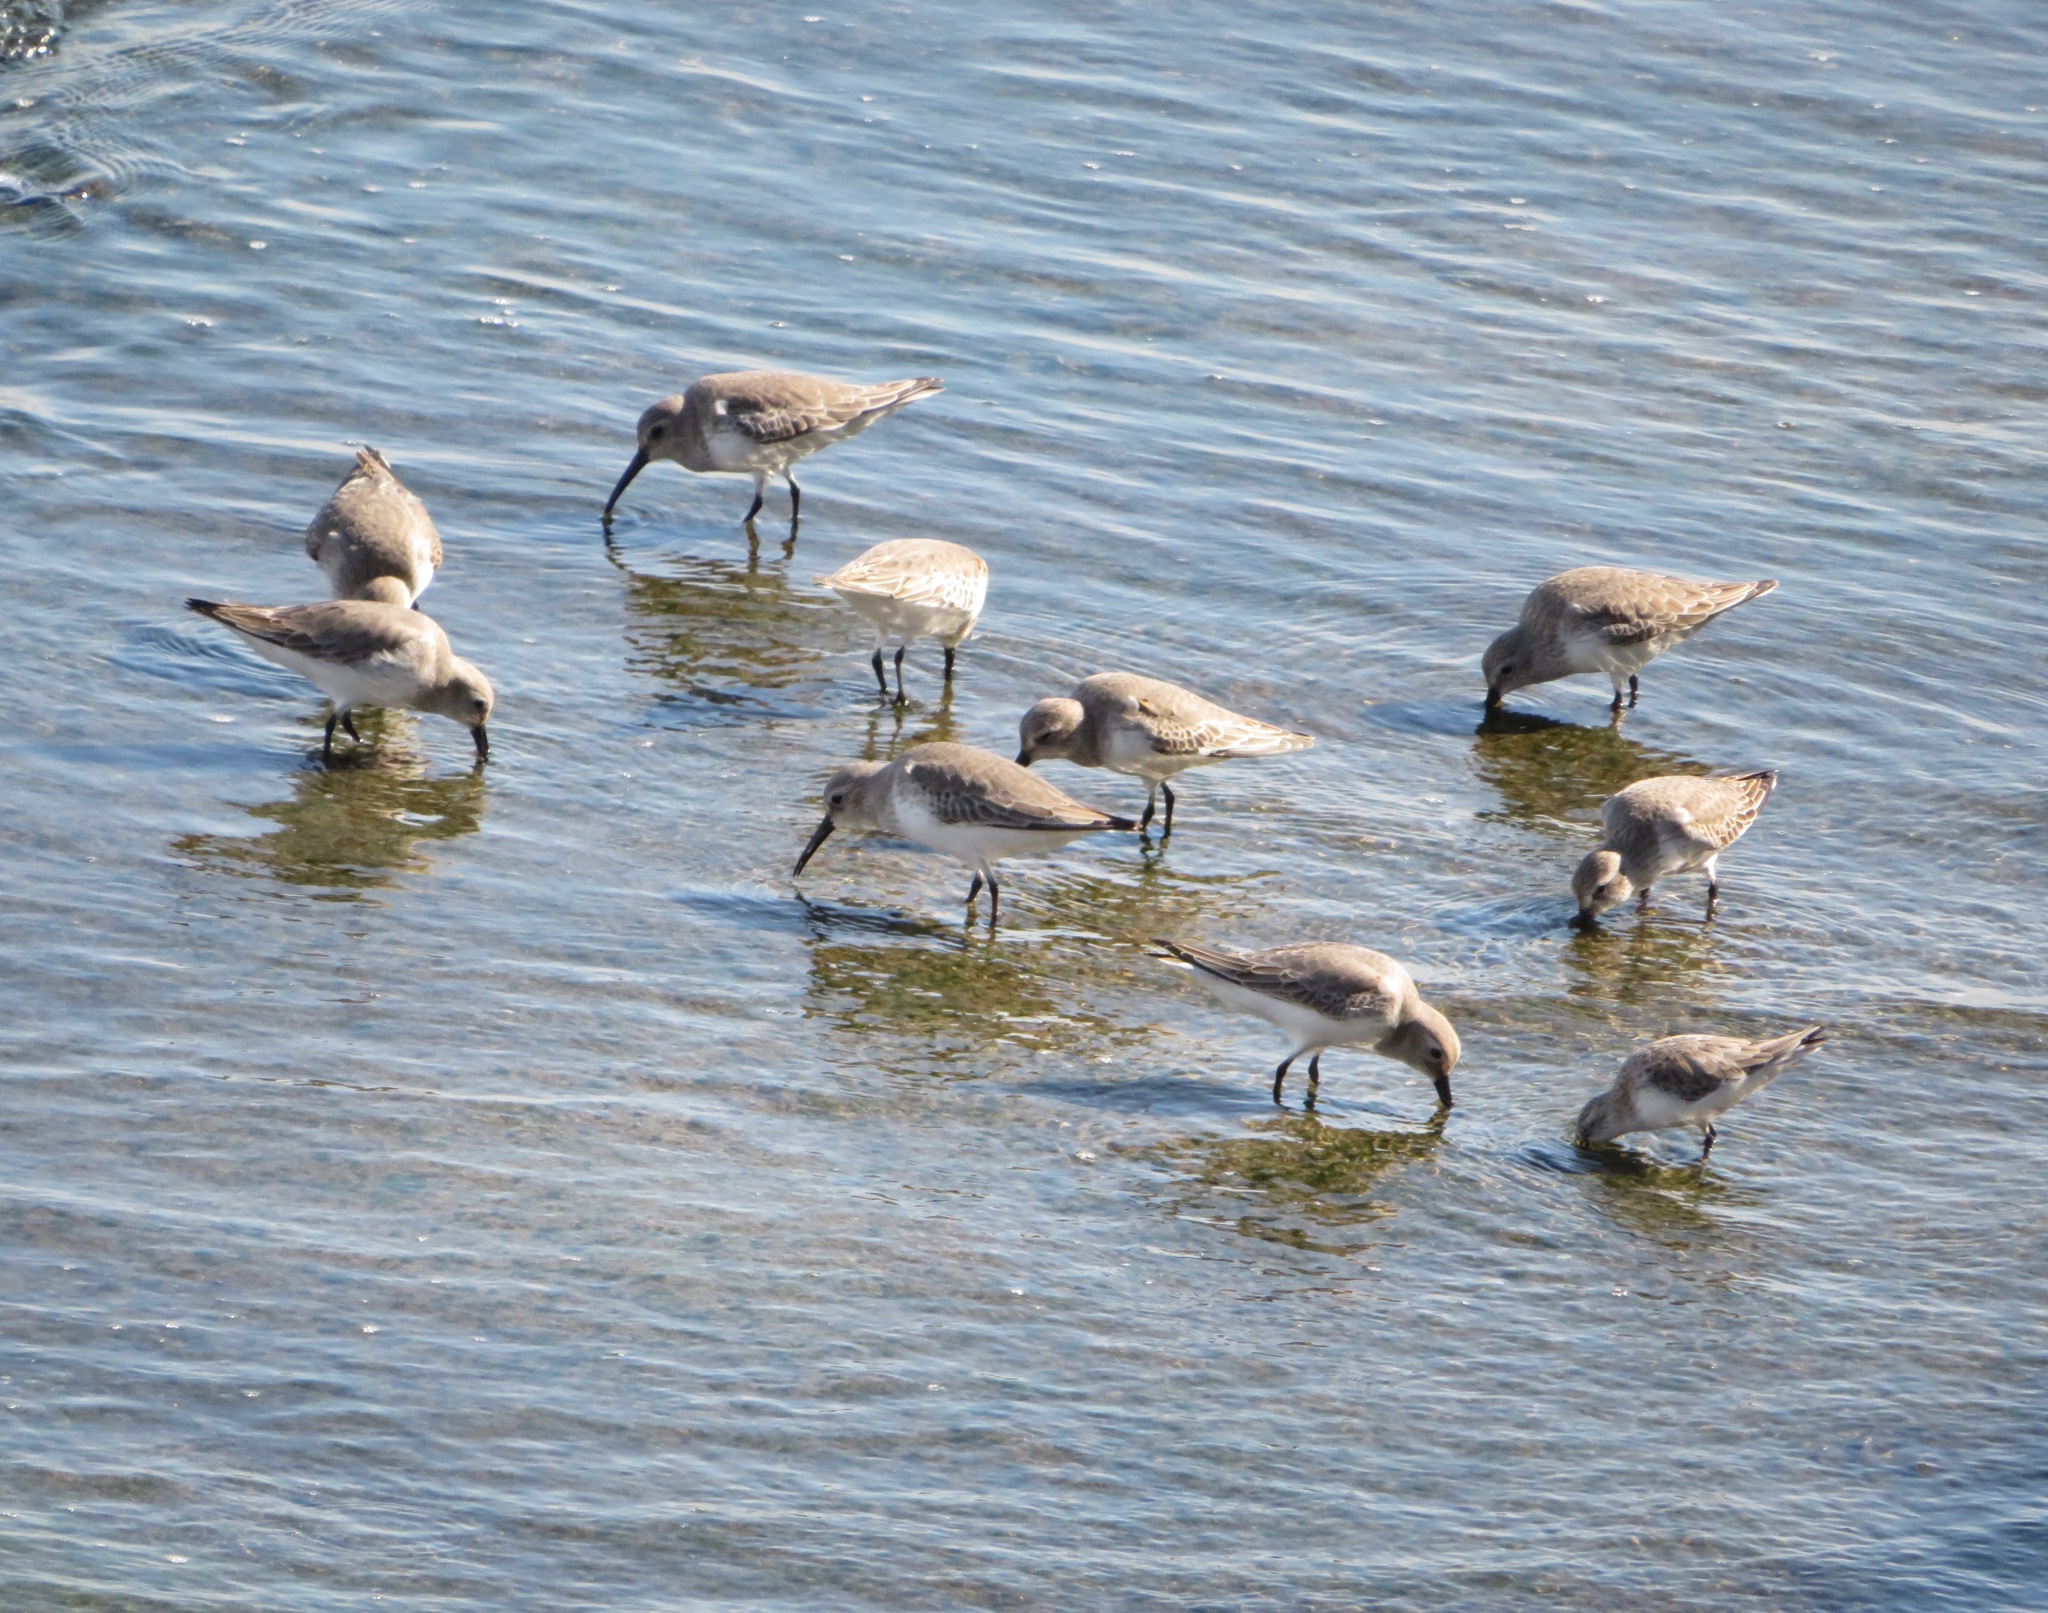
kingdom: Animalia
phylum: Chordata
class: Aves
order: Charadriiformes
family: Scolopacidae
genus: Calidris
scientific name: Calidris alpina
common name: Dunlin
